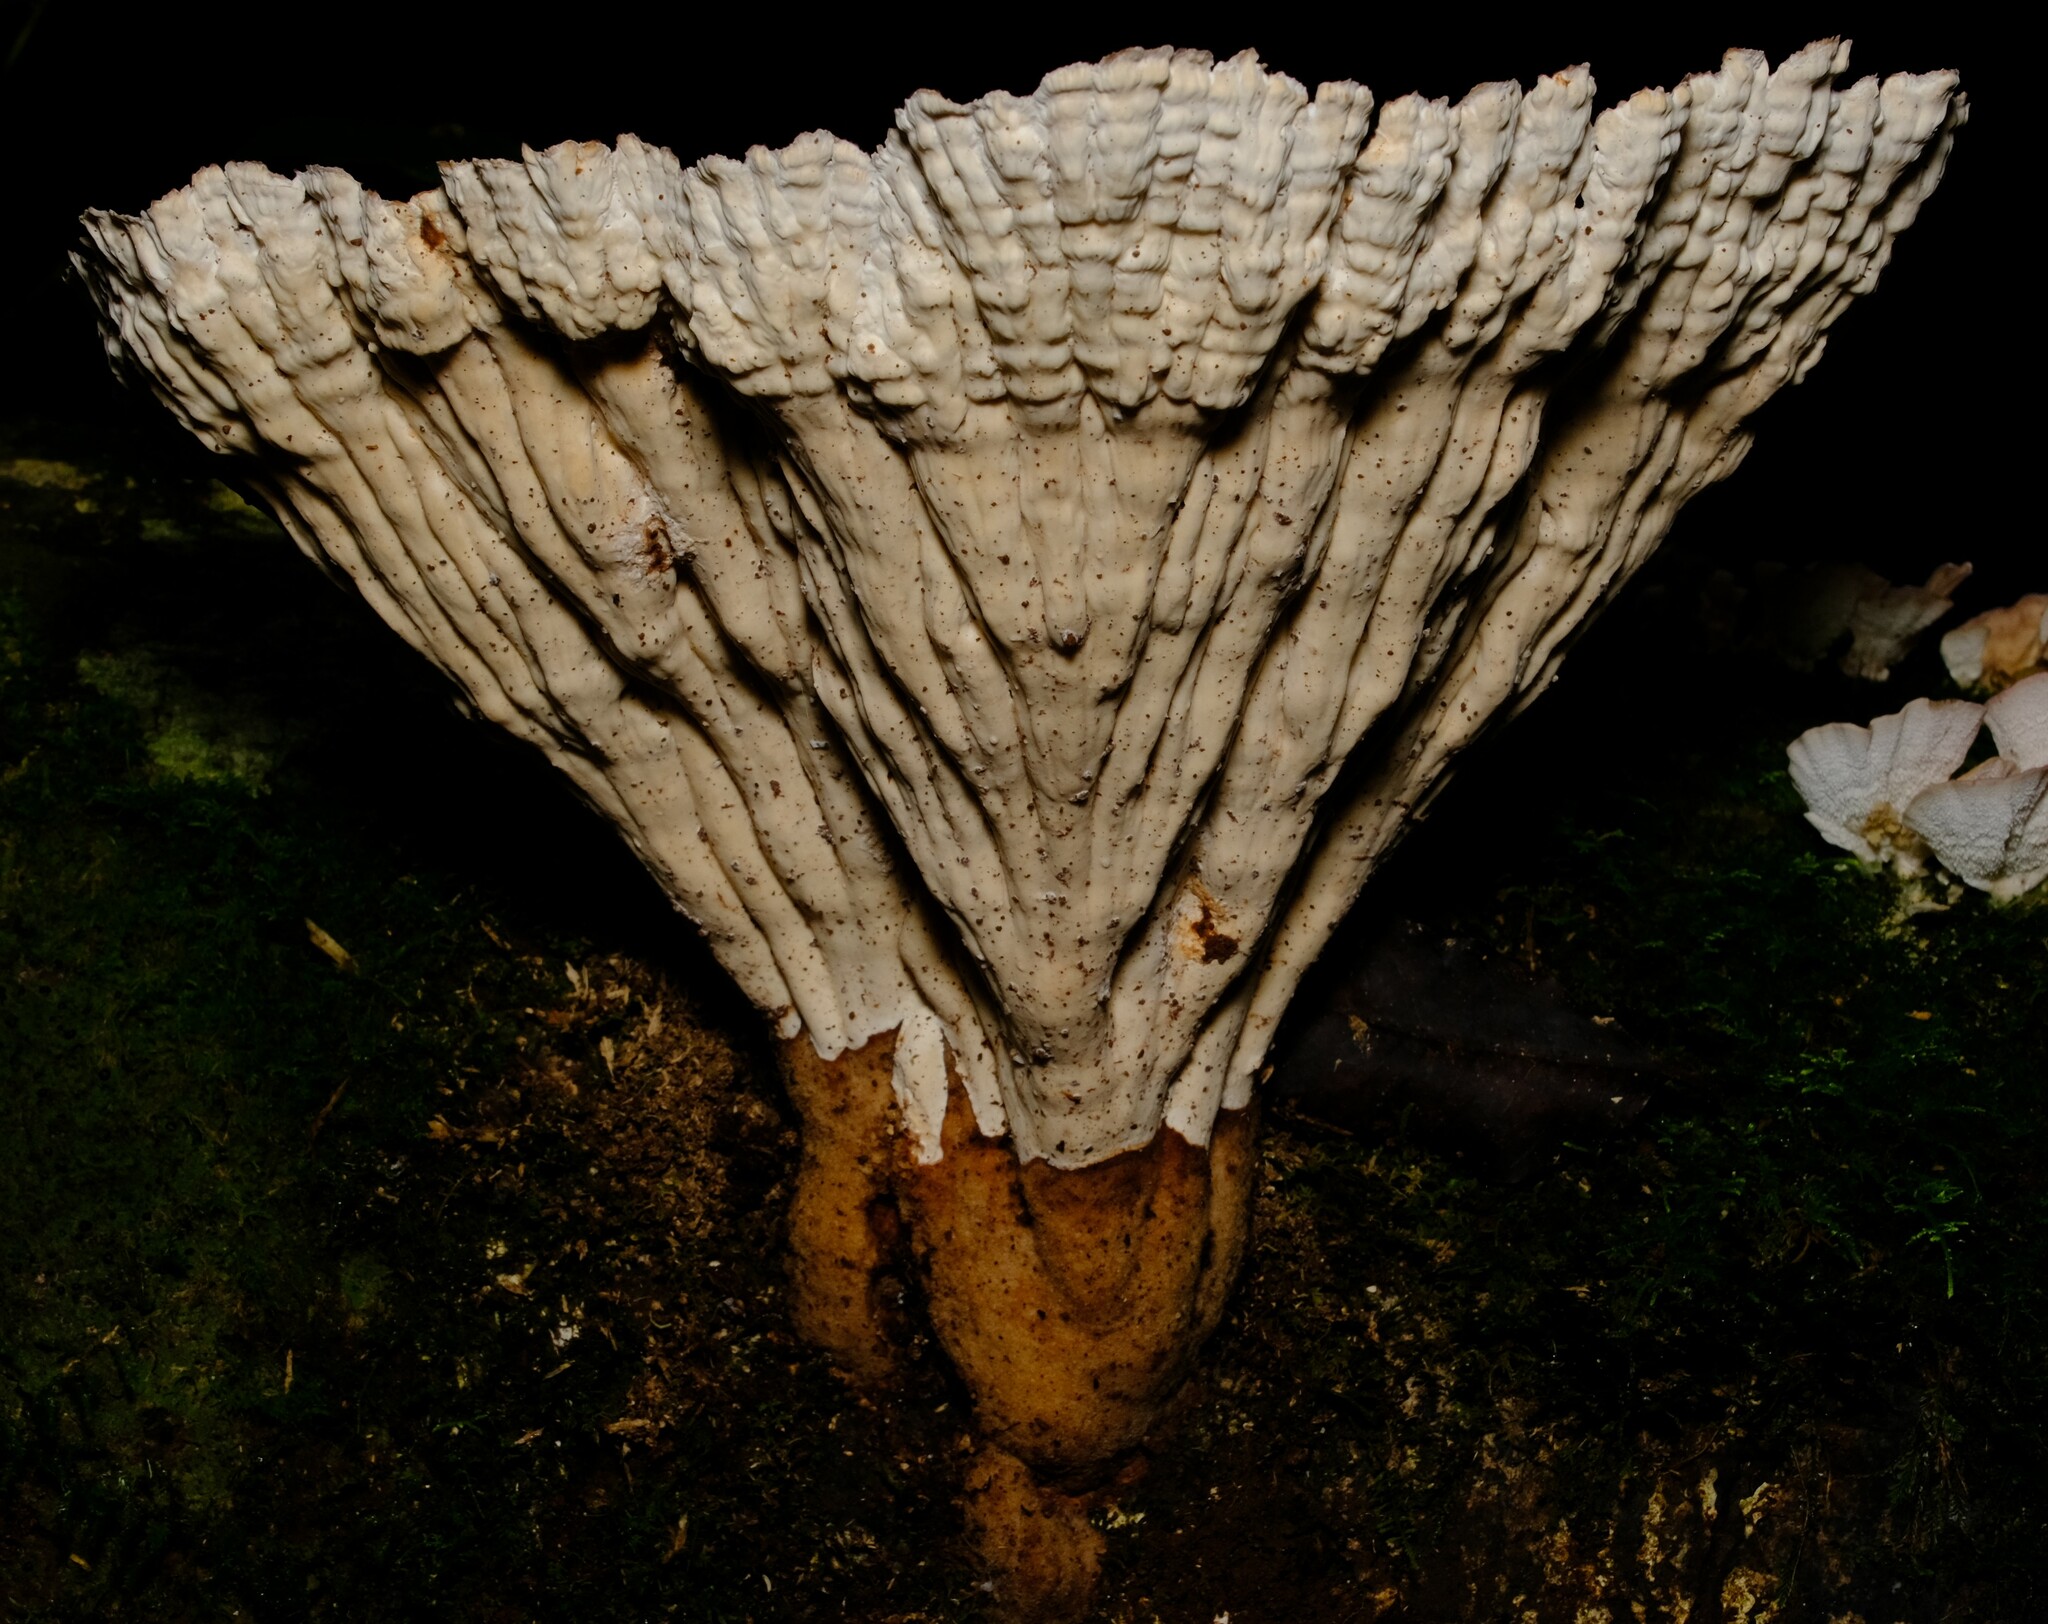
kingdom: Fungi
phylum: Basidiomycota
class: Agaricomycetes
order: Polyporales
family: Panaceae
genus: Cymatoderma
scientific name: Cymatoderma elegans
